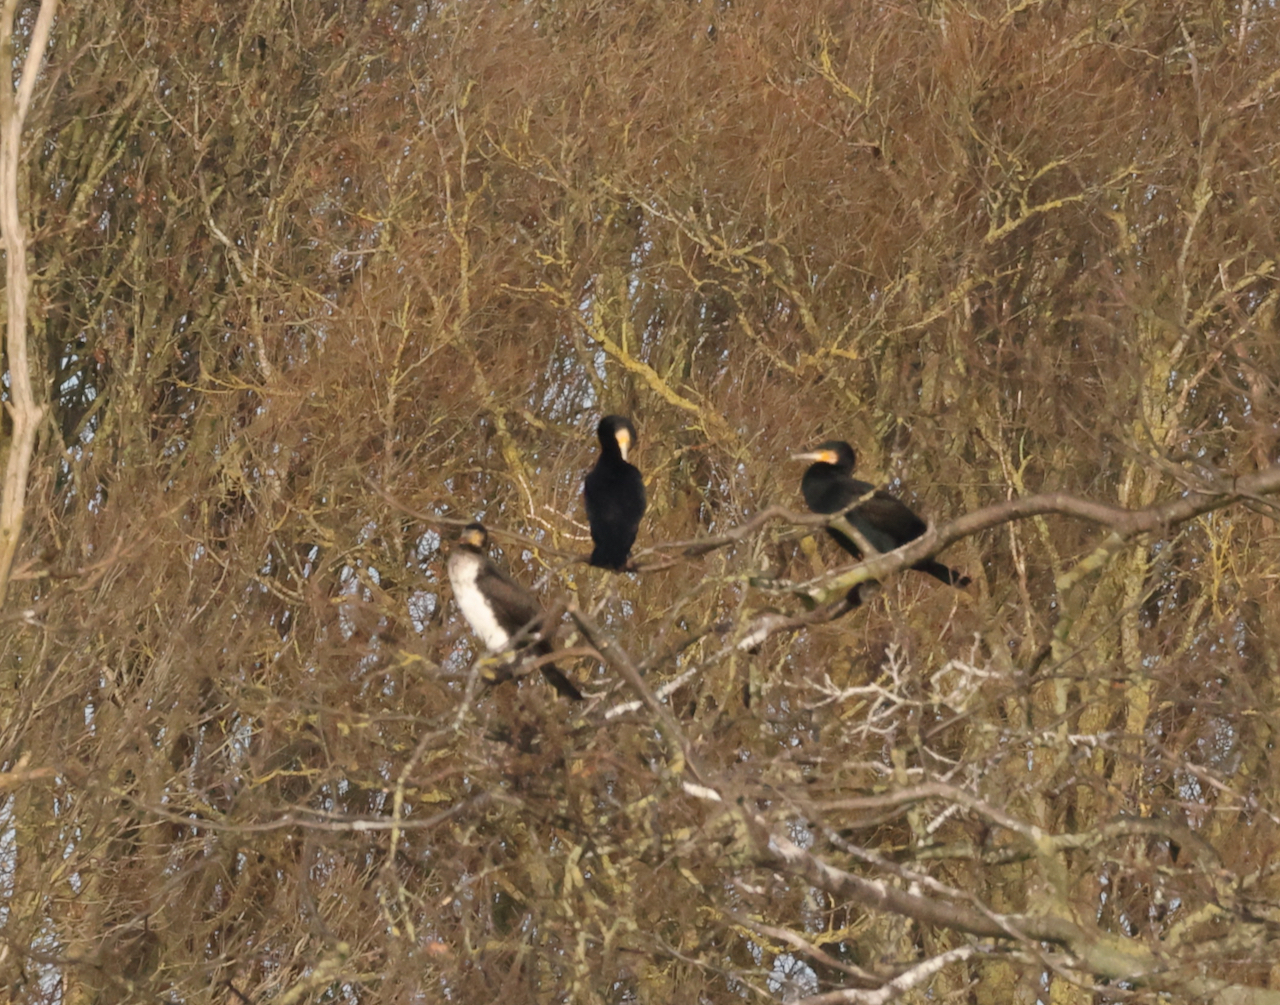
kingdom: Animalia
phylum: Chordata
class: Aves
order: Suliformes
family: Phalacrocoracidae
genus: Phalacrocorax
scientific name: Phalacrocorax carbo
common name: Great cormorant
